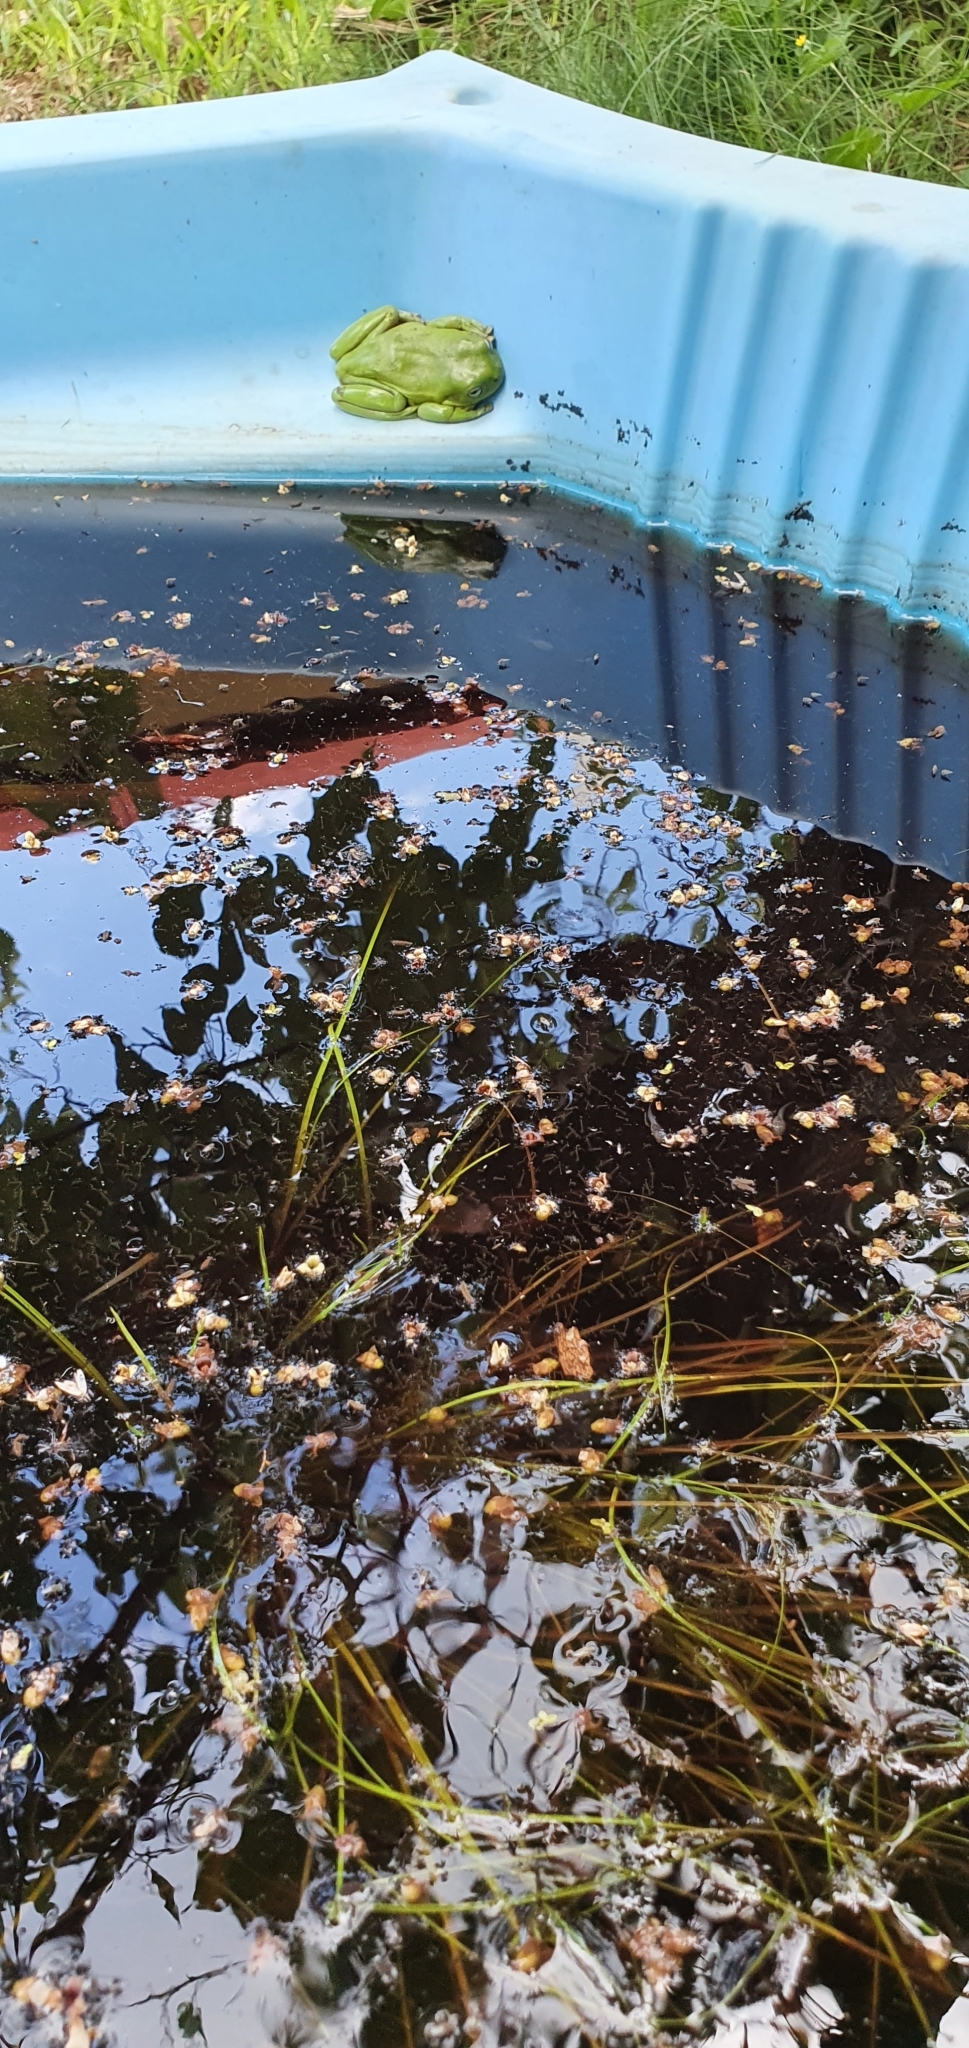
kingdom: Animalia
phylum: Chordata
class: Amphibia
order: Anura
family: Pelodryadidae
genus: Ranoidea
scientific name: Ranoidea caerulea
